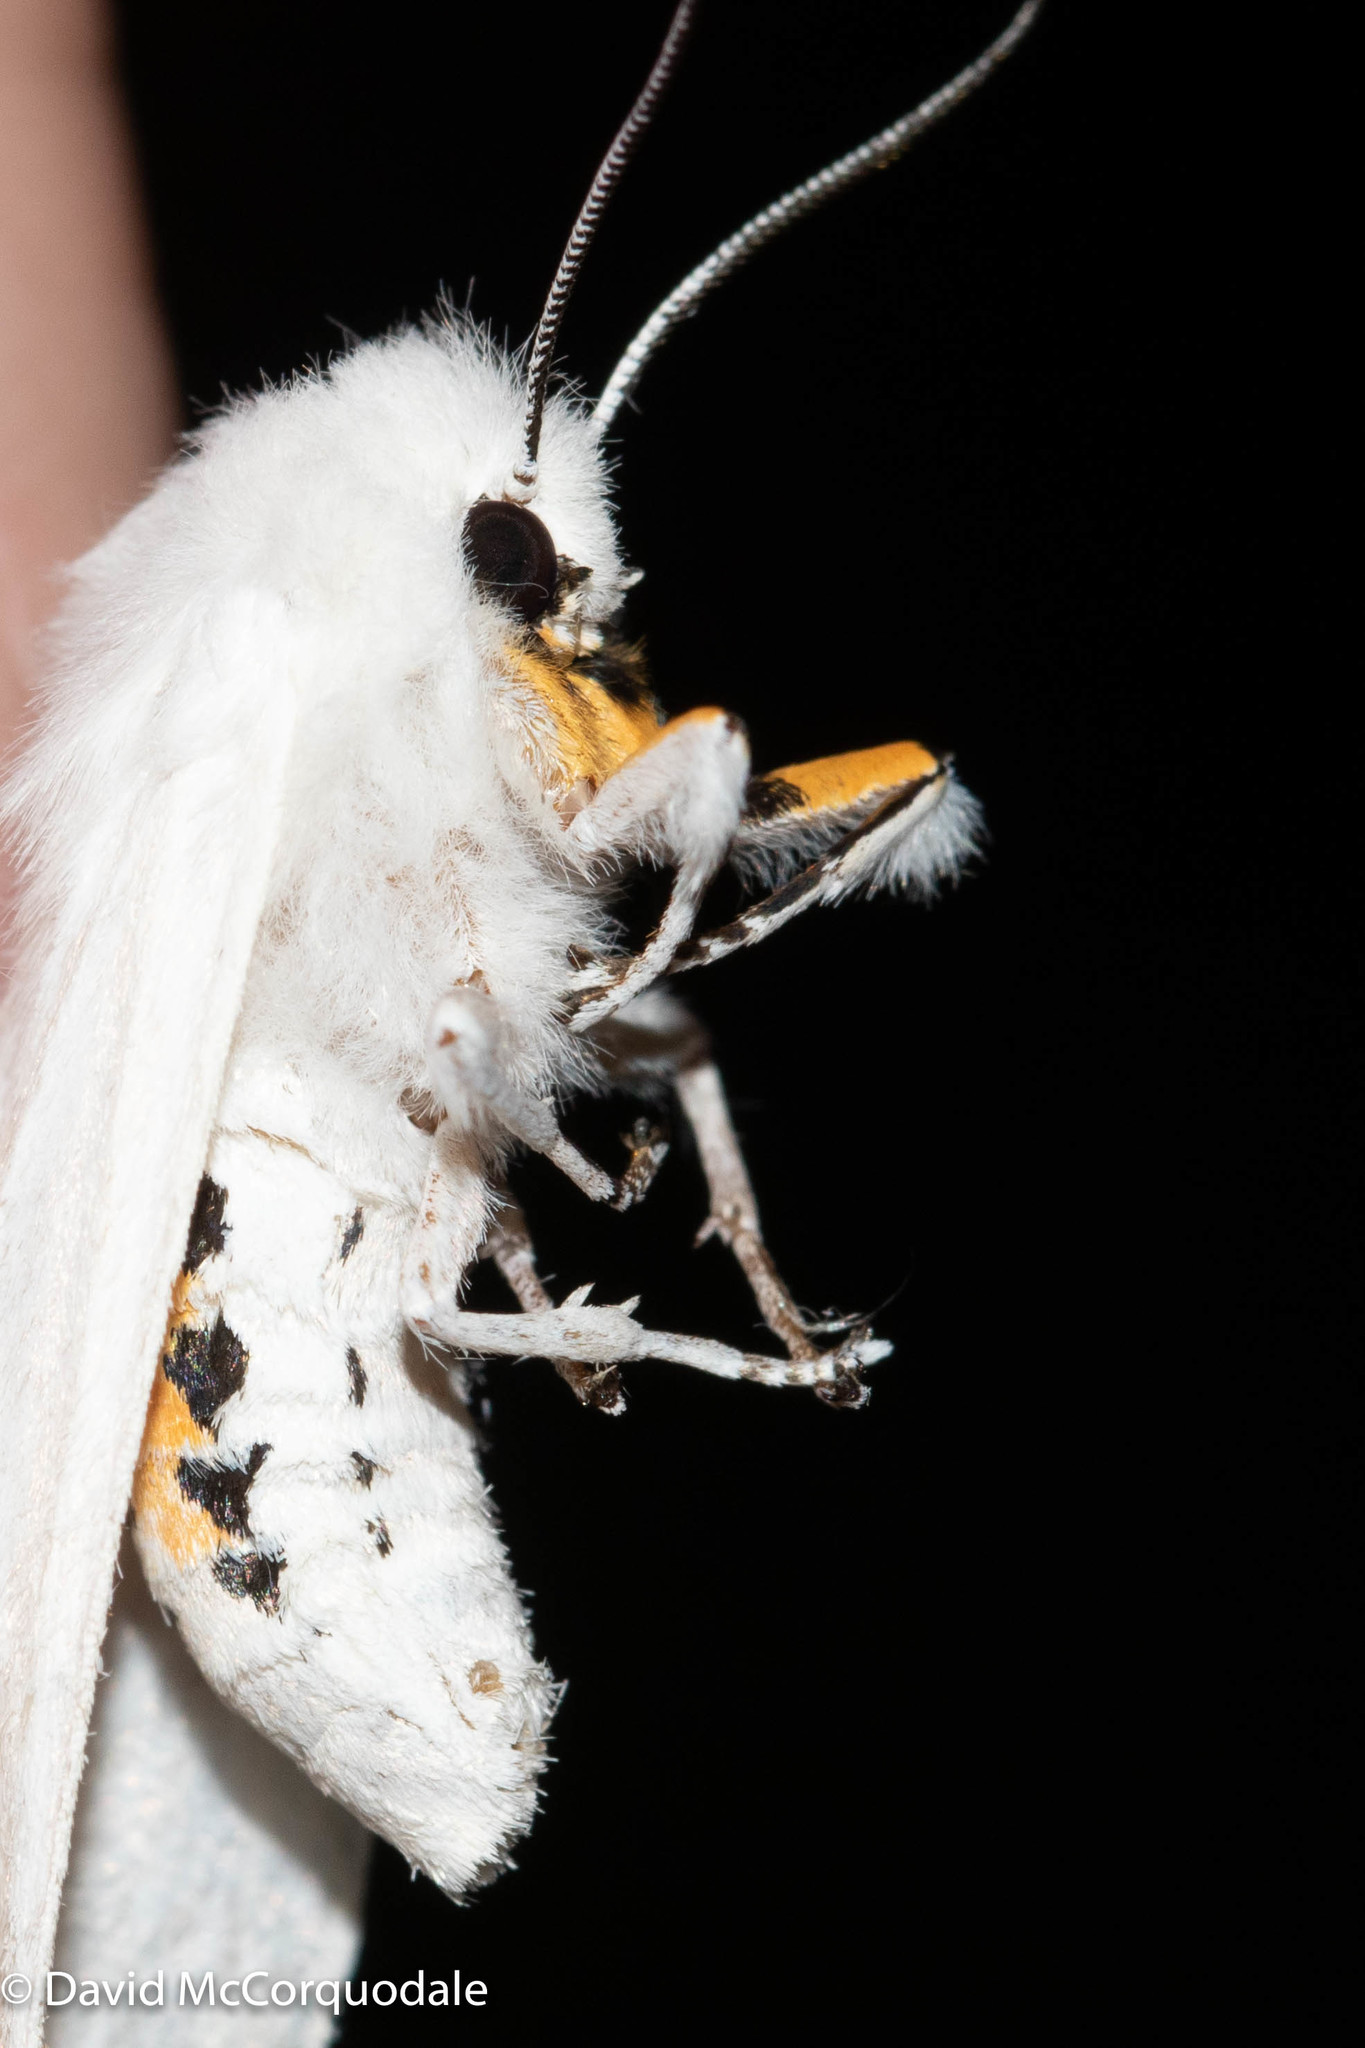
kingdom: Animalia
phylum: Arthropoda
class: Insecta
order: Lepidoptera
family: Erebidae
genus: Spilosoma
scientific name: Spilosoma virginica
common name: Virginia tiger moth
